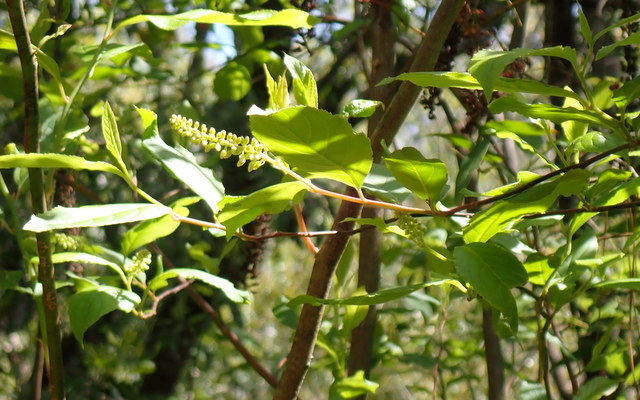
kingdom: Plantae
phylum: Tracheophyta
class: Magnoliopsida
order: Saxifragales
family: Iteaceae
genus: Itea
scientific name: Itea virginica
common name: Sweetspire
